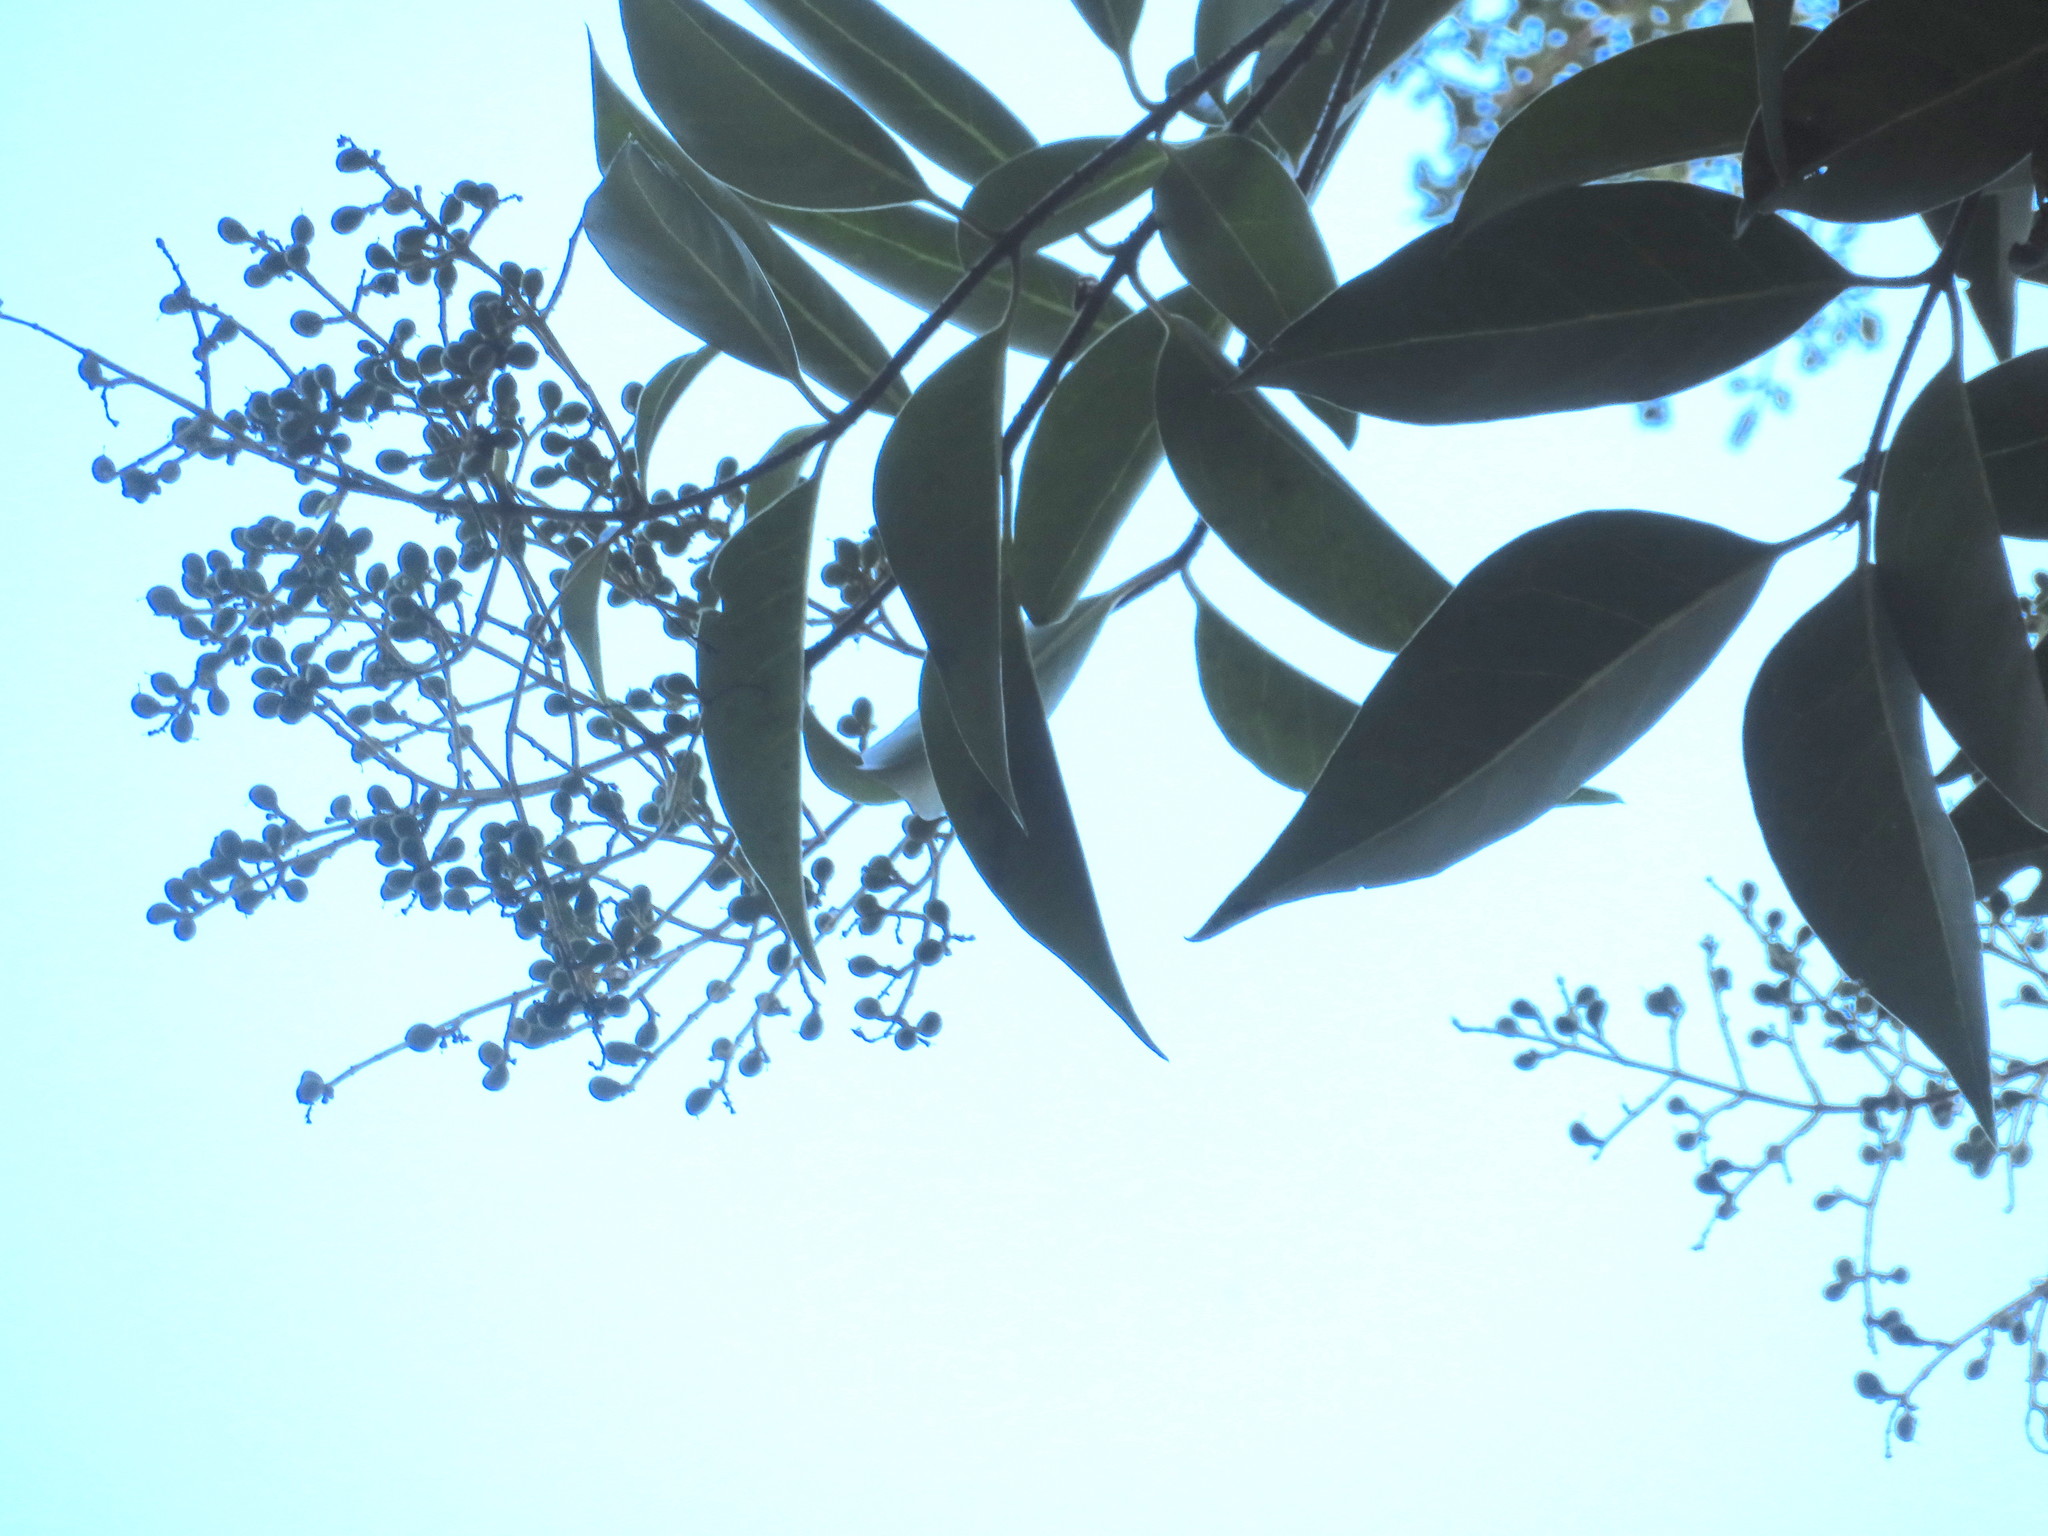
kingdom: Plantae
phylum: Tracheophyta
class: Magnoliopsida
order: Lamiales
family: Oleaceae
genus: Ligustrum
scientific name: Ligustrum lucidum
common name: Glossy privet
